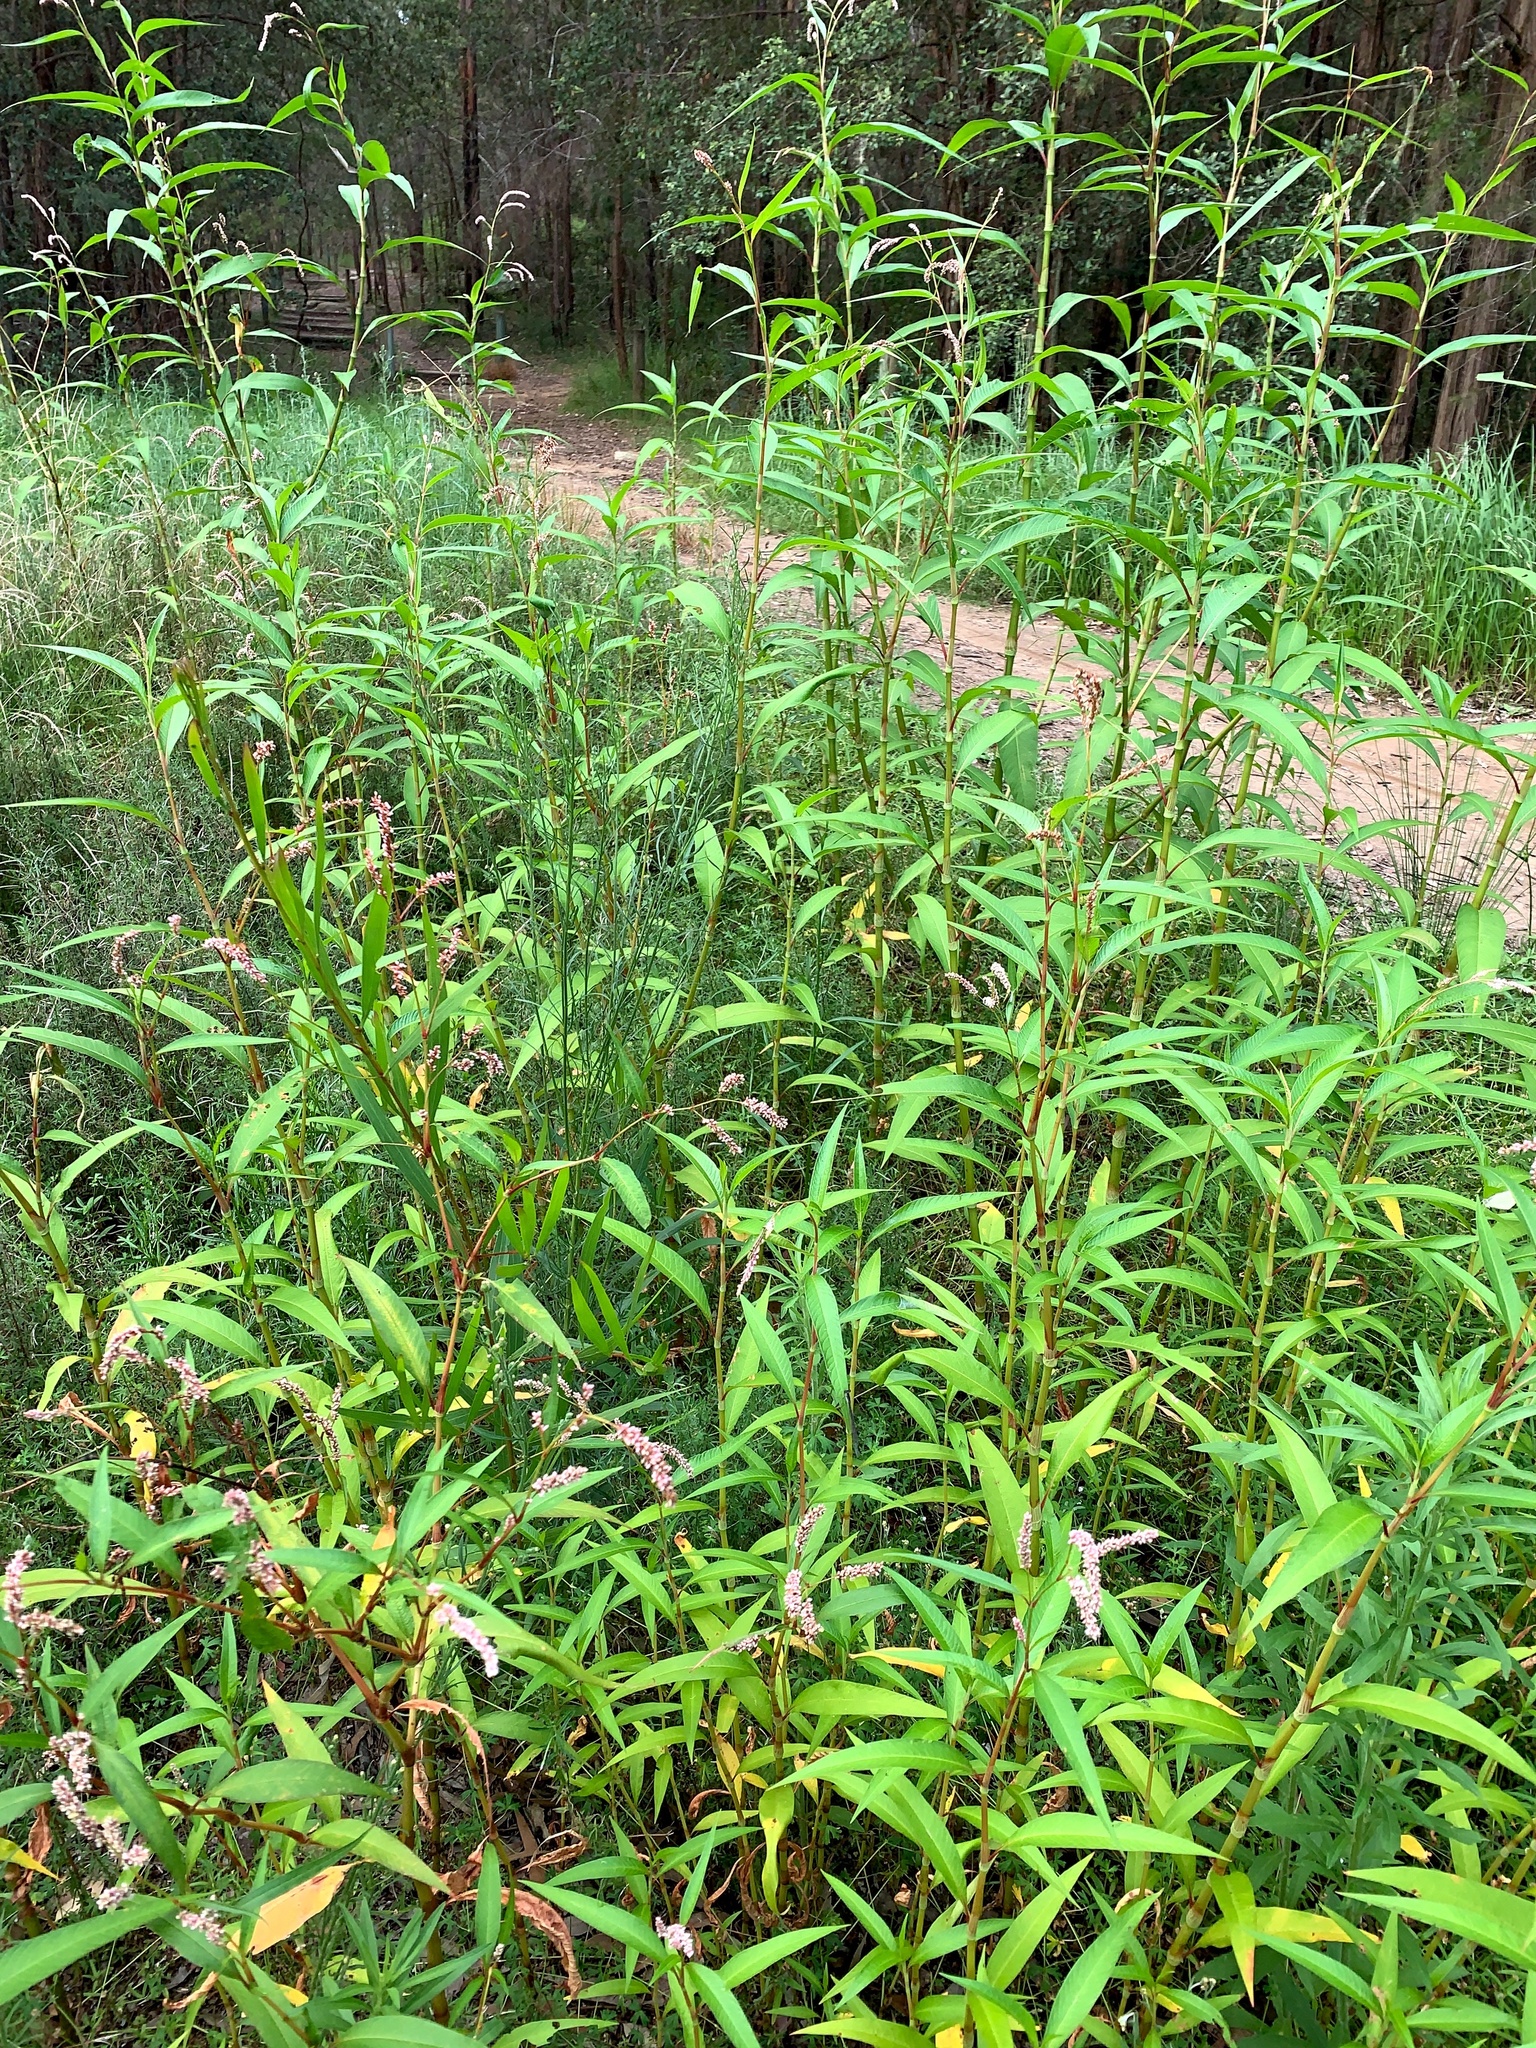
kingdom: Plantae
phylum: Tracheophyta
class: Magnoliopsida
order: Caryophyllales
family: Polygonaceae
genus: Persicaria
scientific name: Persicaria lapathifolia
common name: Curlytop knotweed
